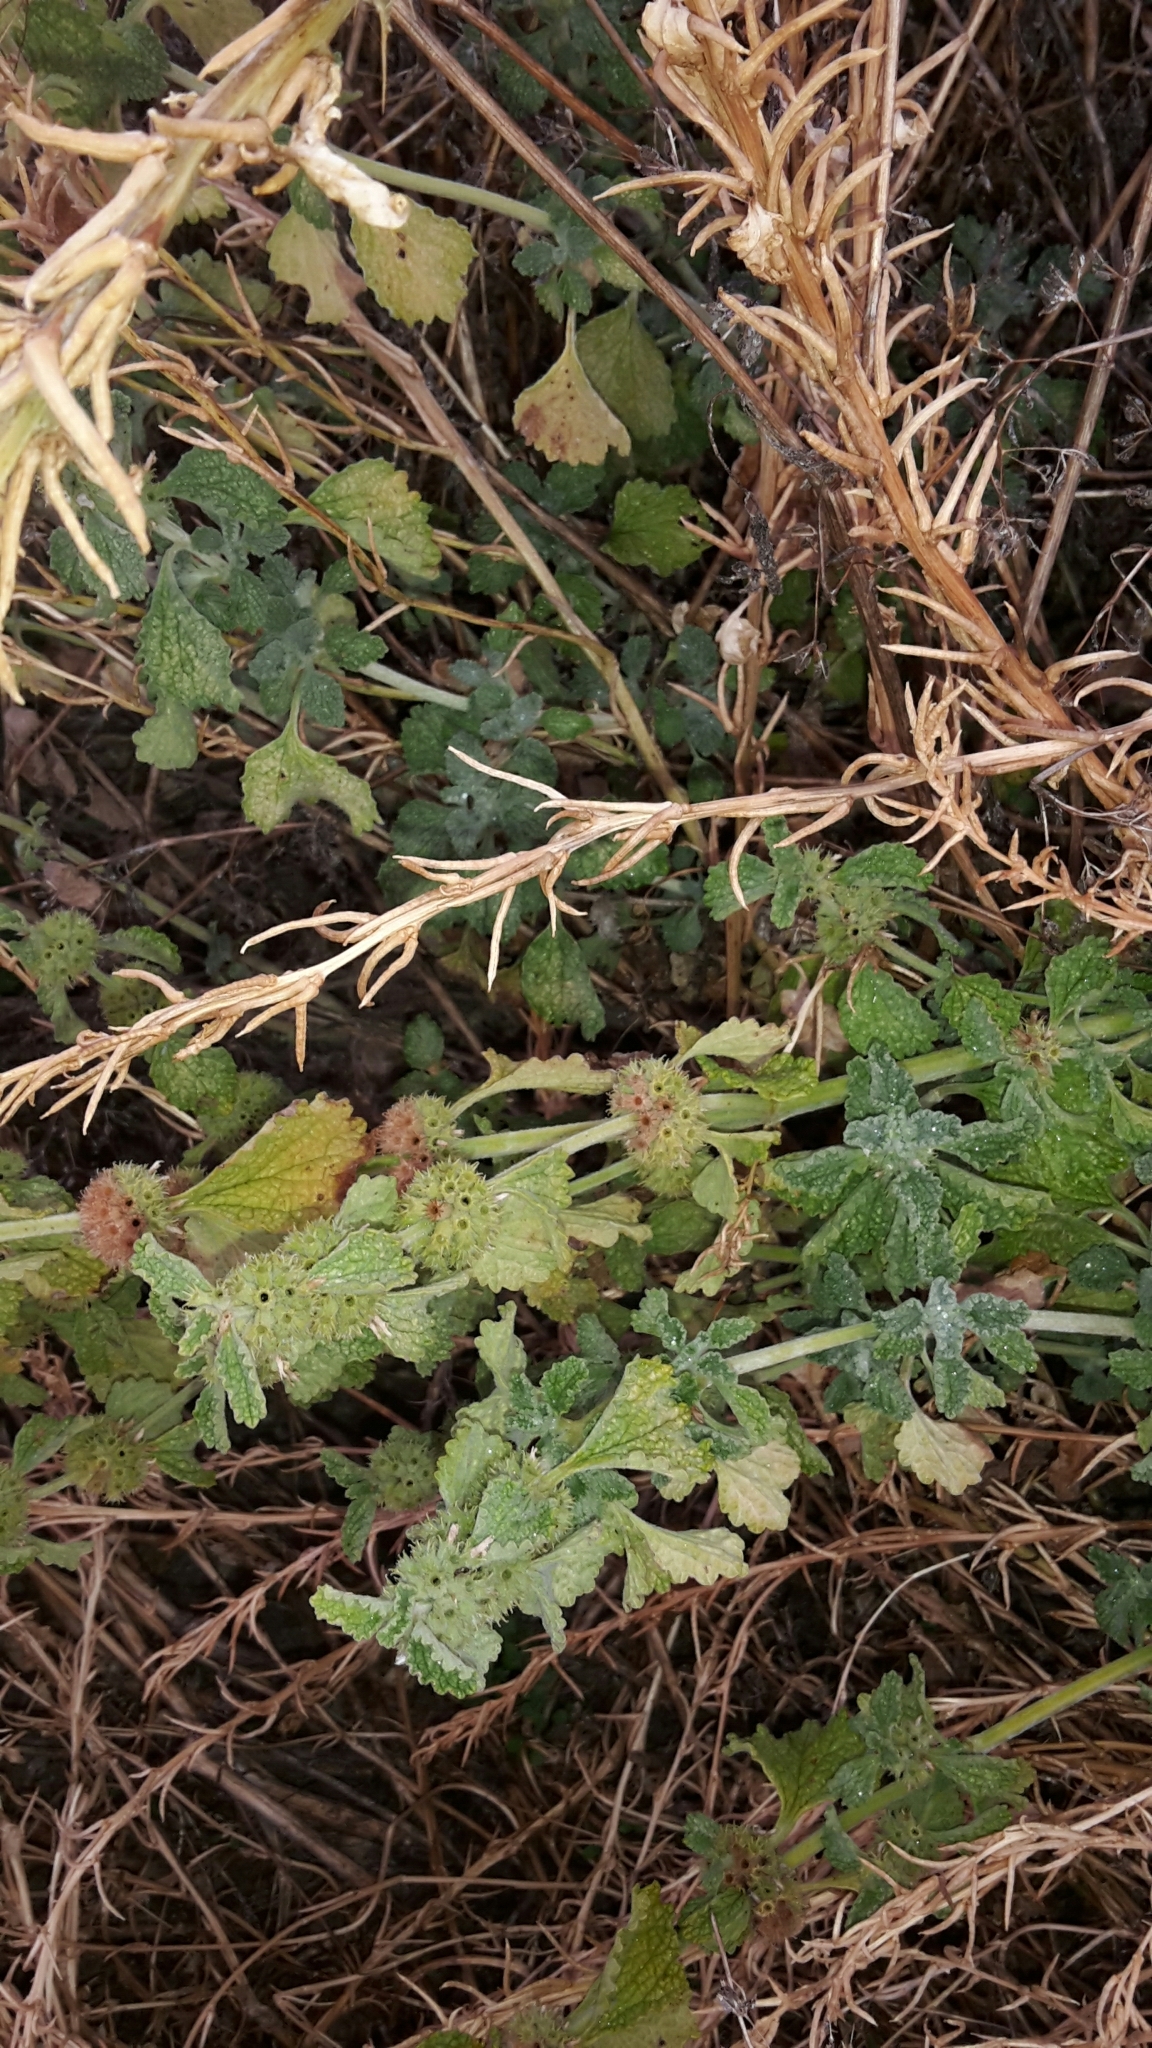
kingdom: Plantae
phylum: Tracheophyta
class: Magnoliopsida
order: Lamiales
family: Lamiaceae
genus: Marrubium
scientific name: Marrubium vulgare
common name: Horehound
